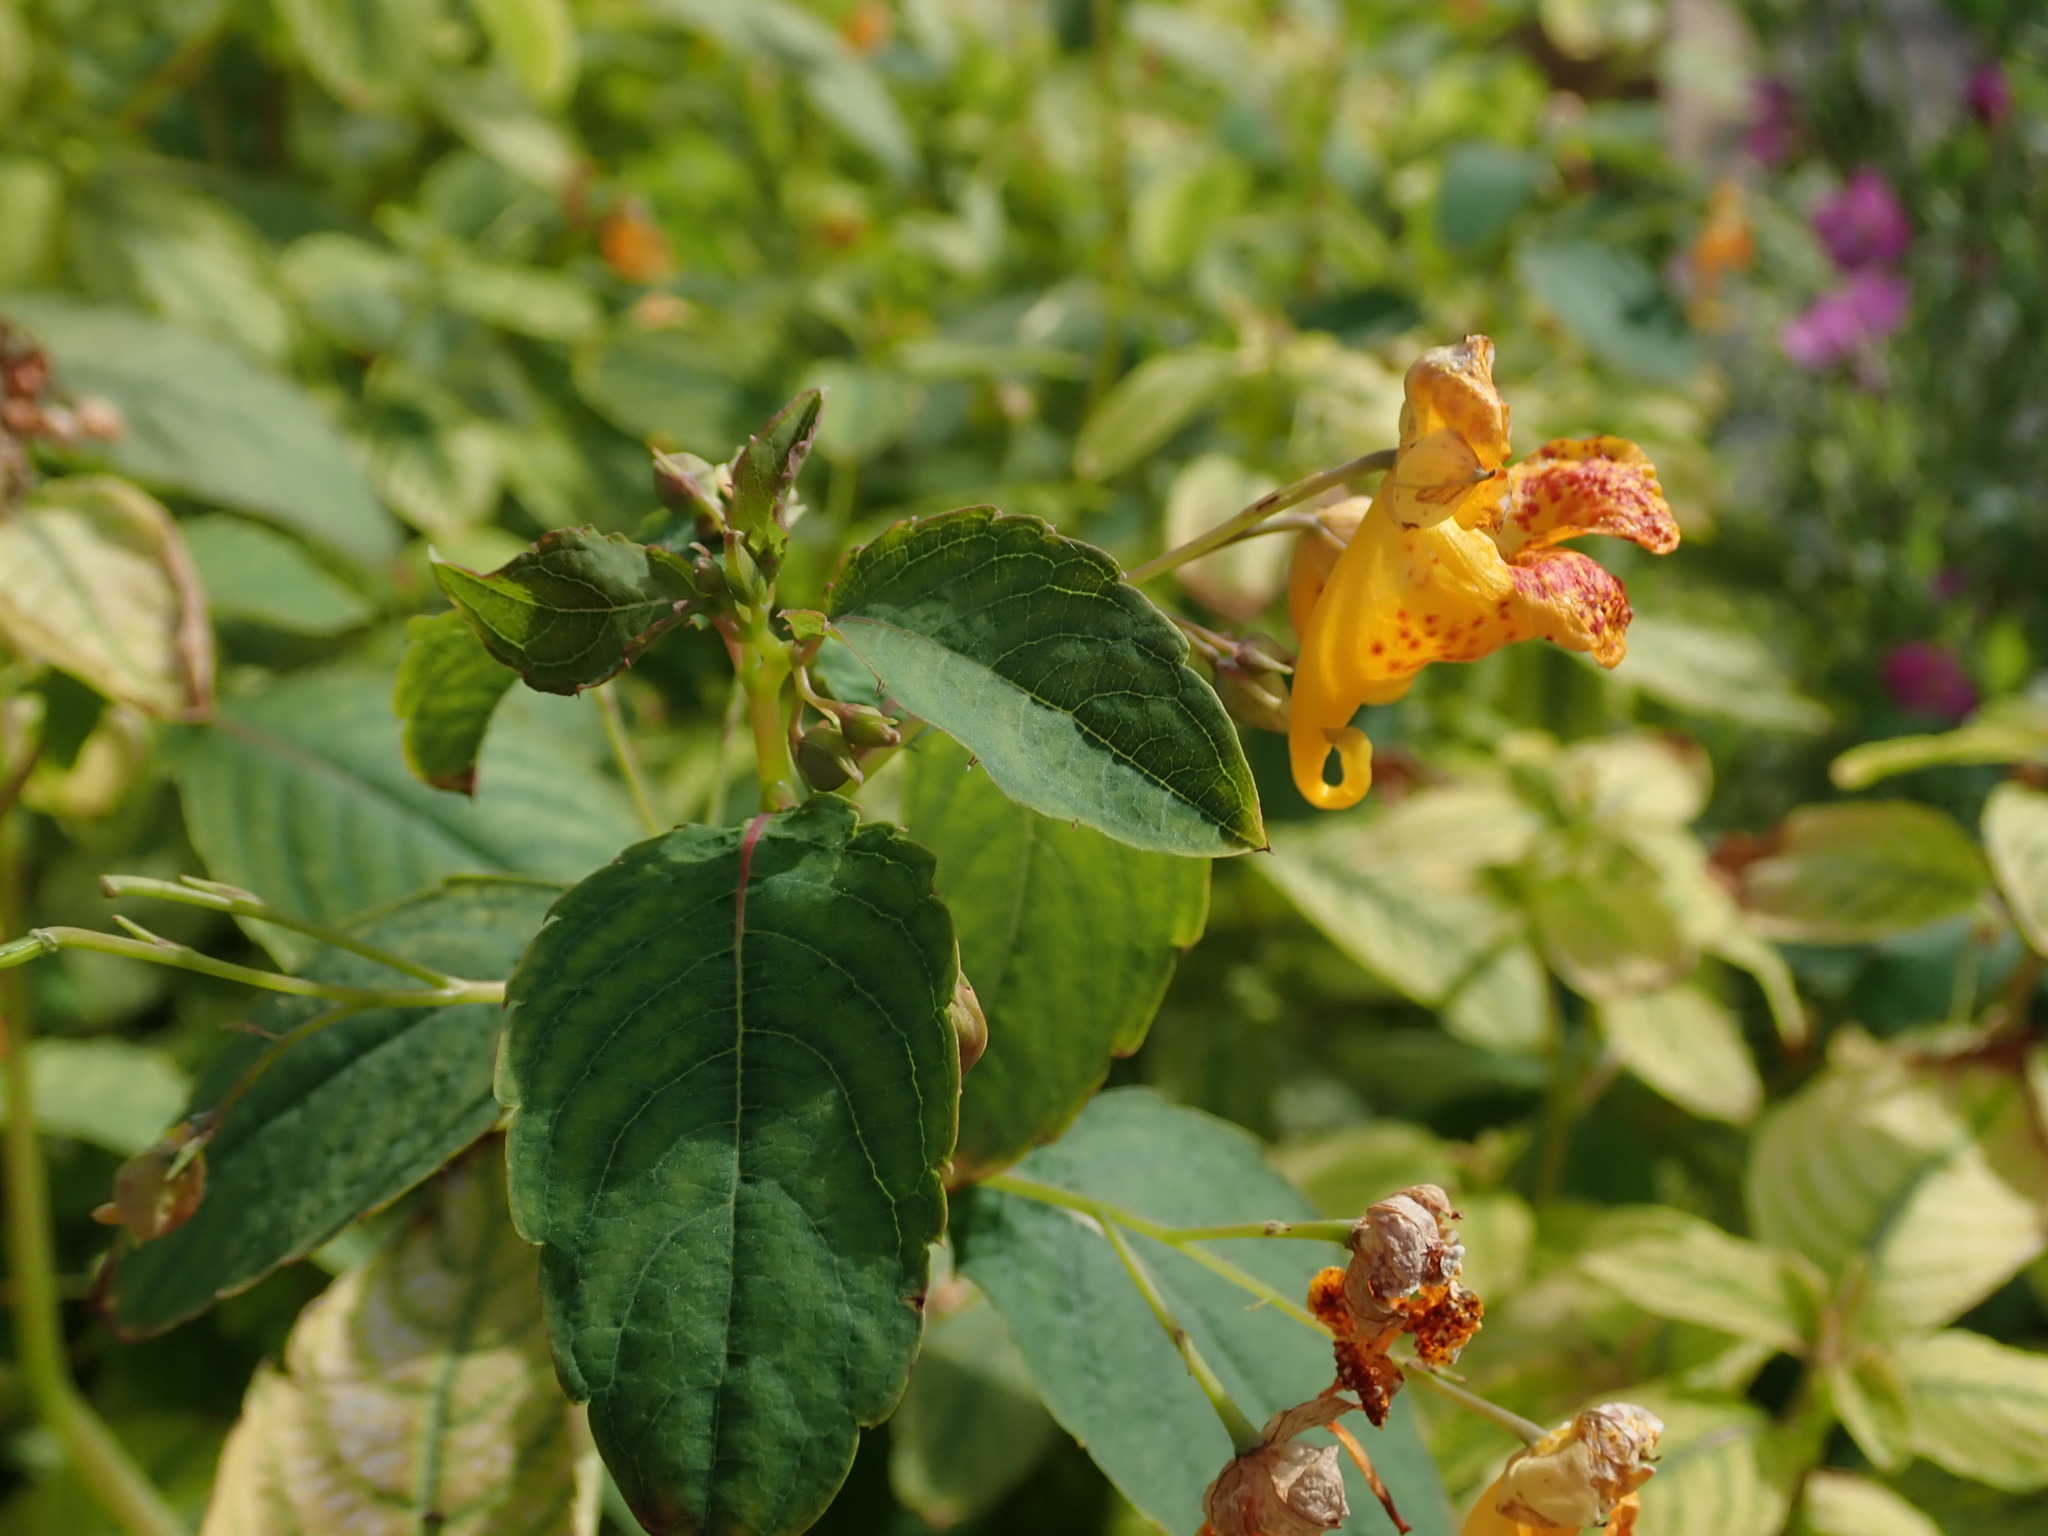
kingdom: Plantae
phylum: Tracheophyta
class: Magnoliopsida
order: Ericales
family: Balsaminaceae
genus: Impatiens
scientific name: Impatiens capensis
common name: Orange balsam
